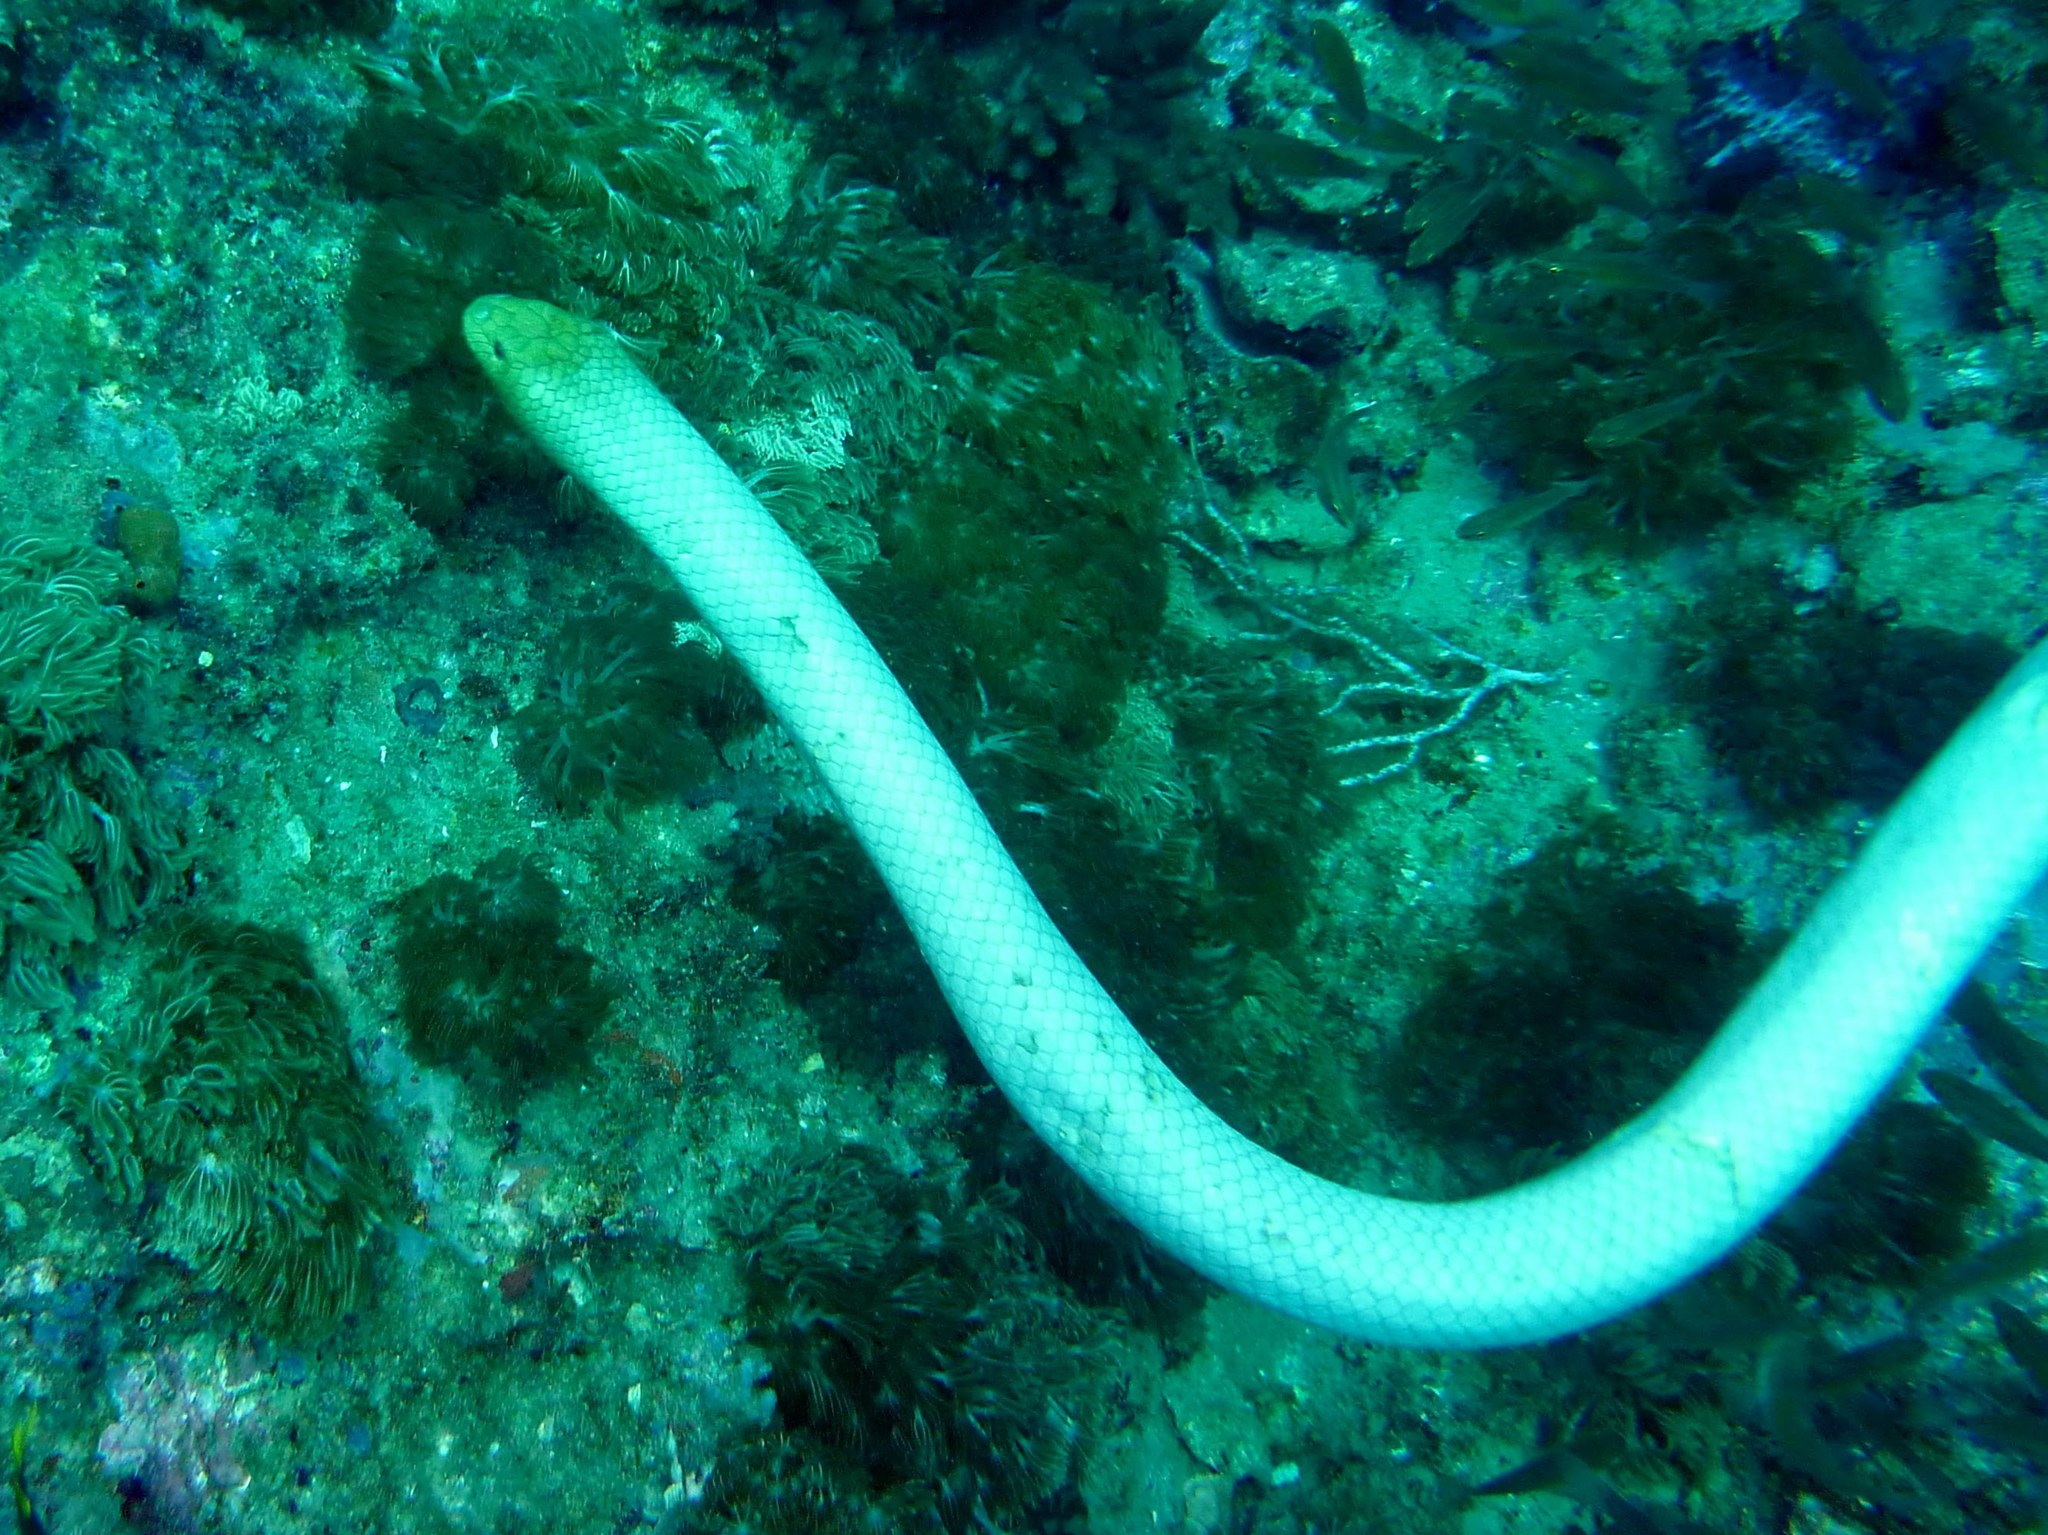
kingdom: Animalia
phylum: Chordata
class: Squamata
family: Elapidae
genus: Aipysurus
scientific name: Aipysurus laevis
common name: Olive sea snake
